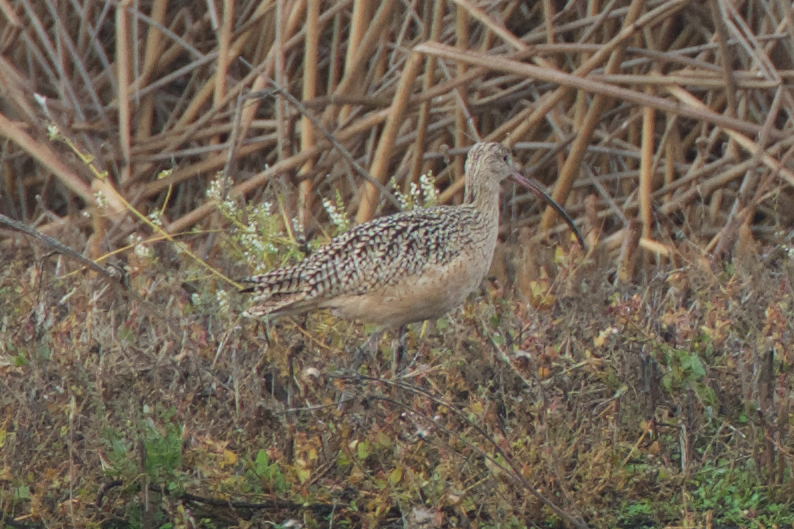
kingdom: Animalia
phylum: Chordata
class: Aves
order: Charadriiformes
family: Scolopacidae
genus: Numenius
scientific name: Numenius americanus
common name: Long-billed curlew
